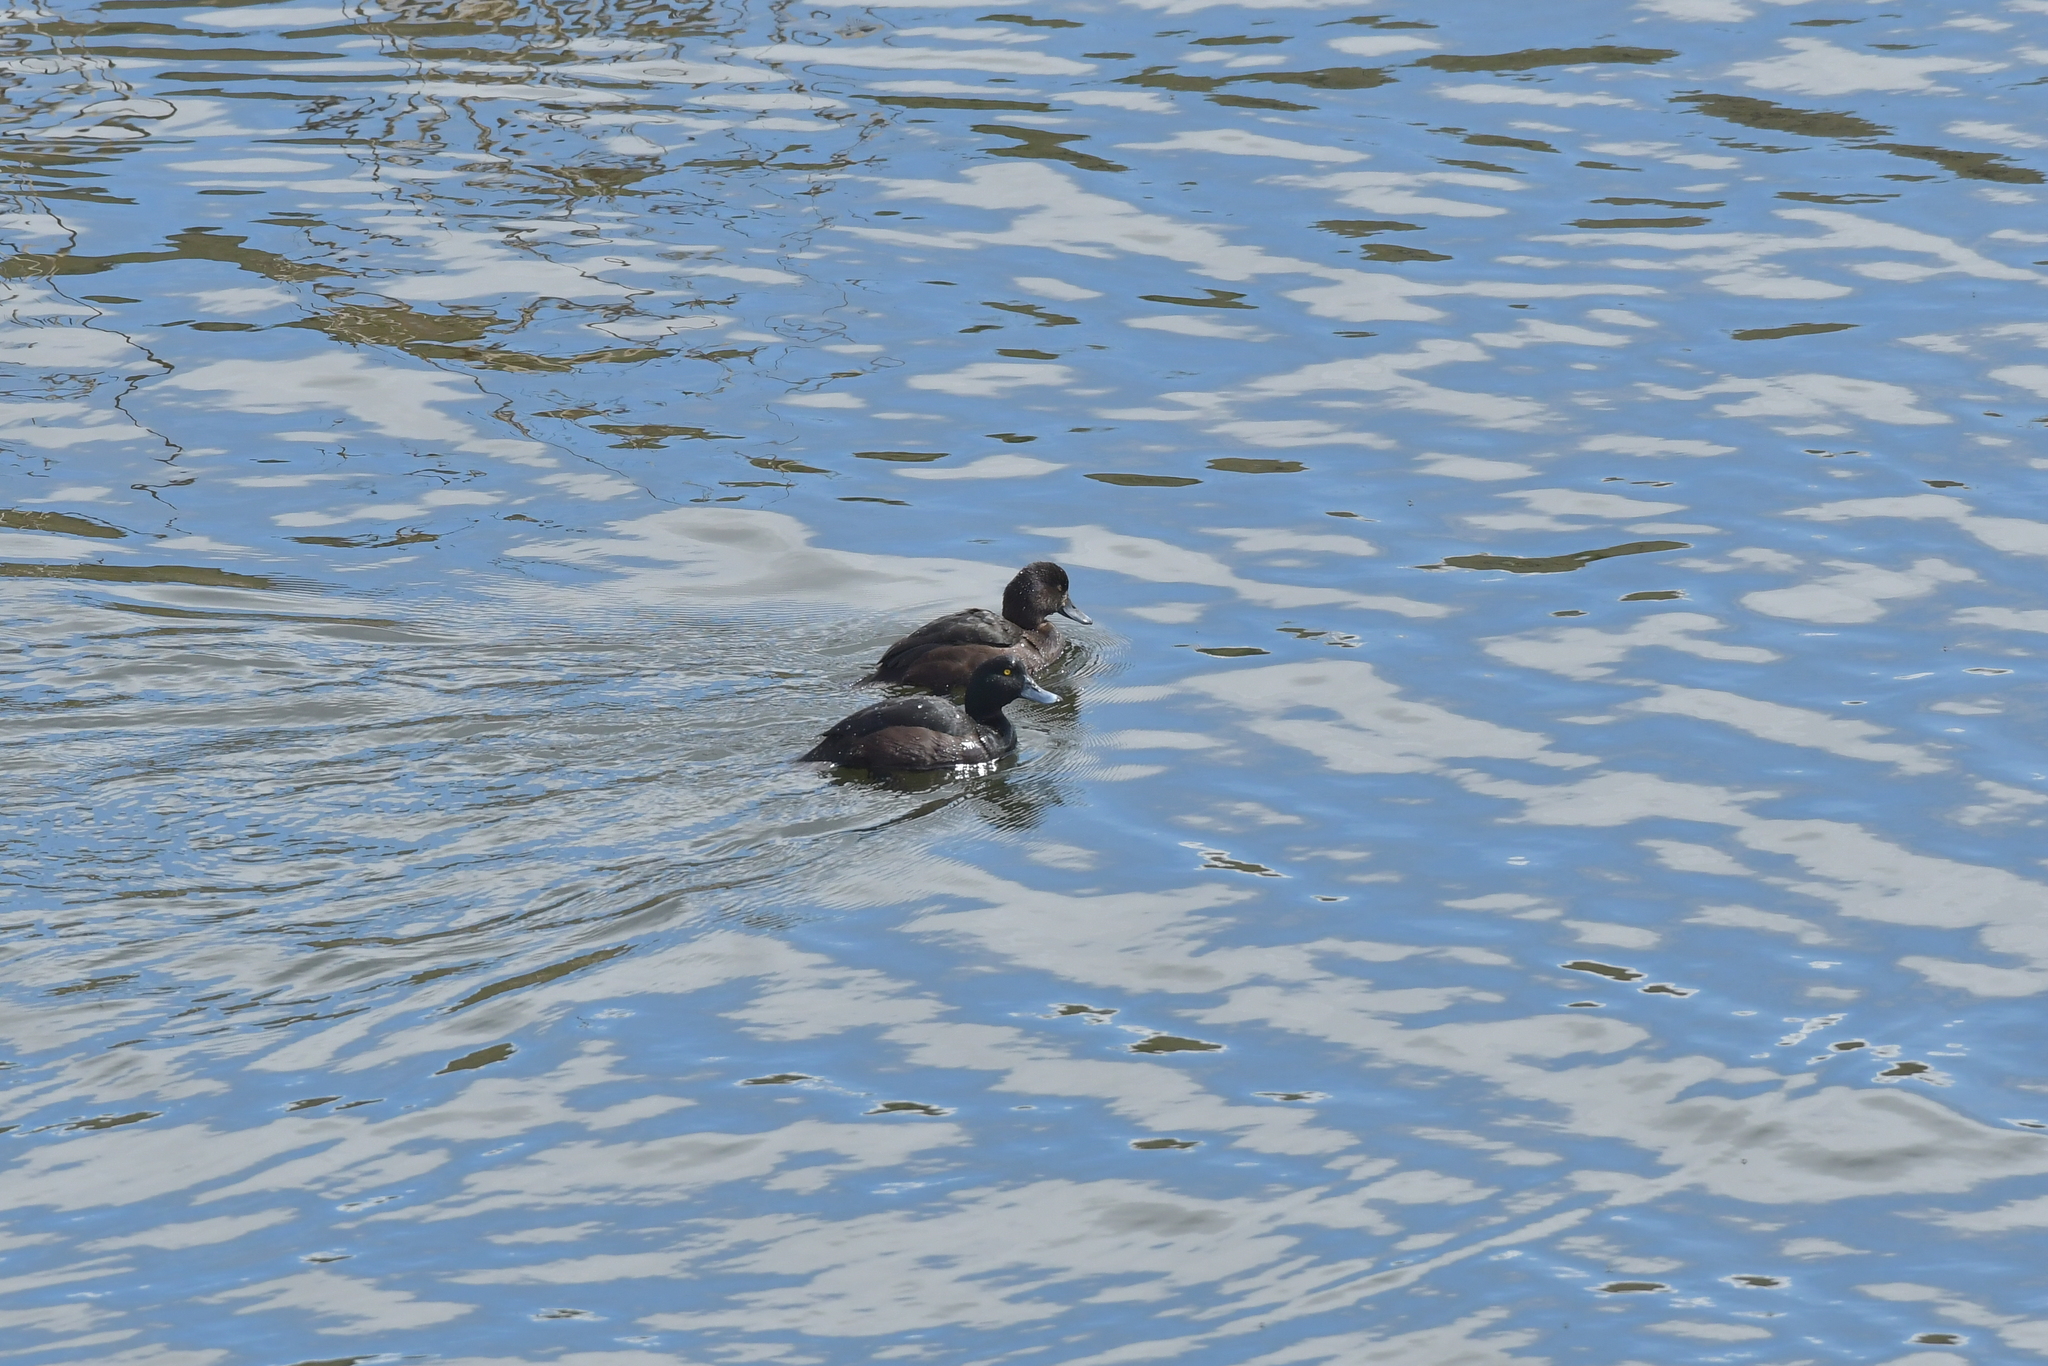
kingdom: Animalia
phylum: Chordata
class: Aves
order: Anseriformes
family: Anatidae
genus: Aythya
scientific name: Aythya novaeseelandiae
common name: New zealand scaup
